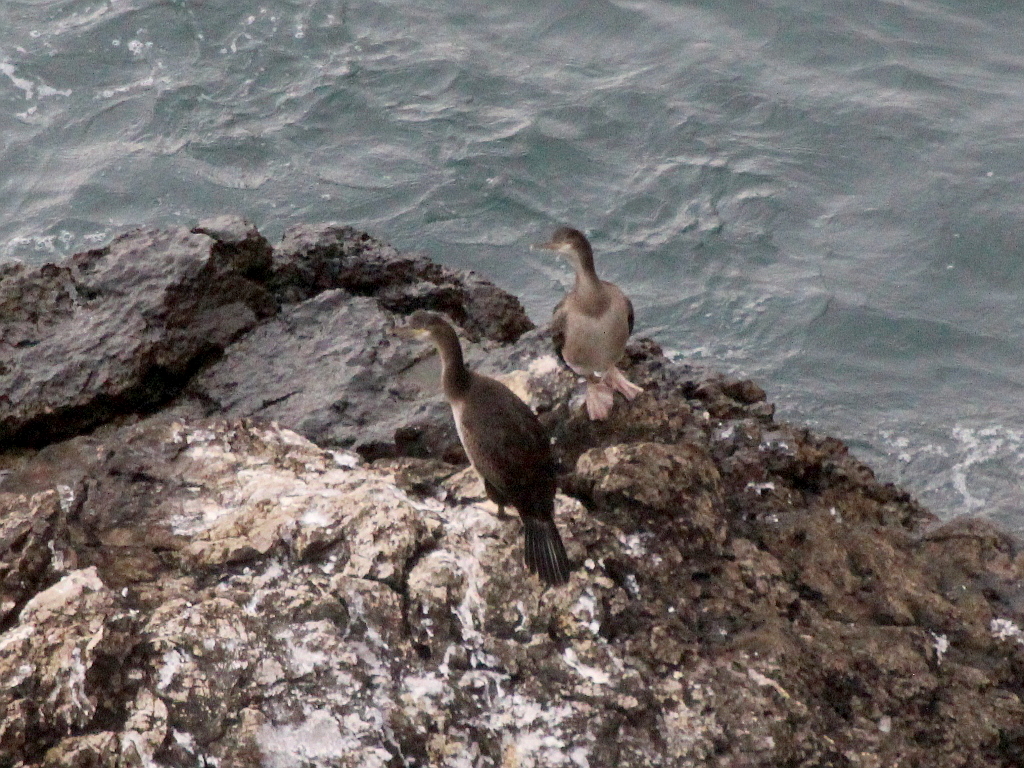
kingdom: Animalia
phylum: Chordata
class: Aves
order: Suliformes
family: Phalacrocoracidae
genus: Phalacrocorax
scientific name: Phalacrocorax aristotelis
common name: European shag
